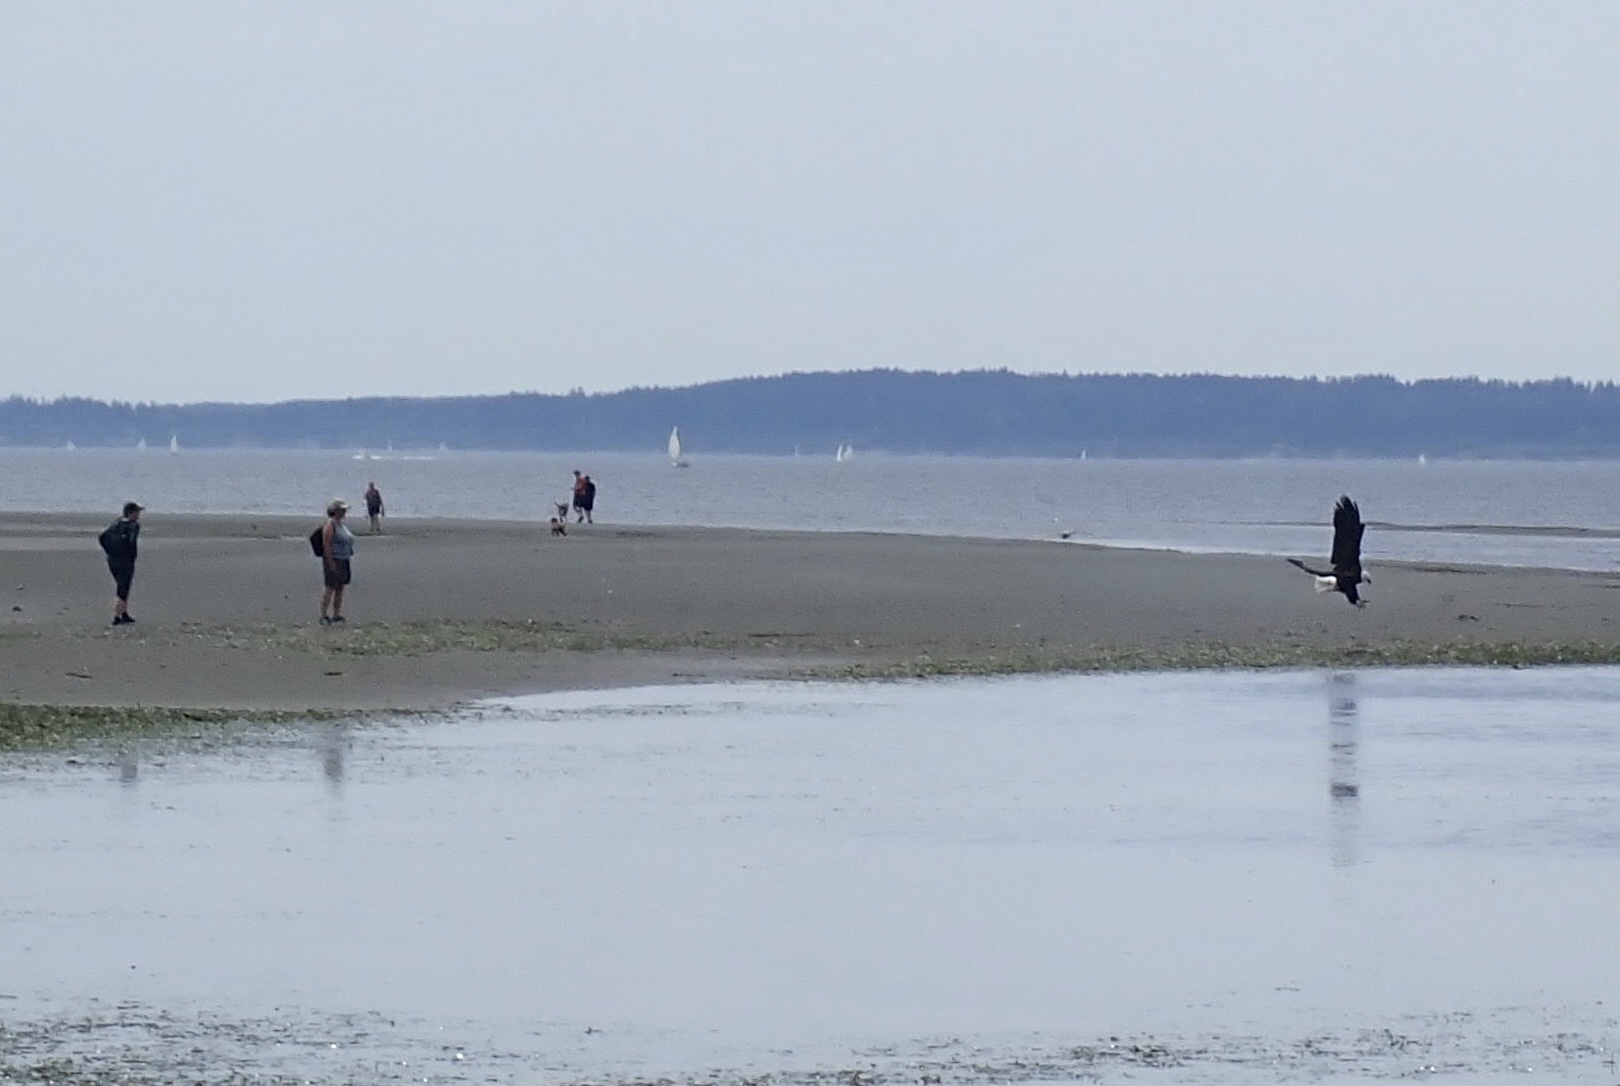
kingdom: Animalia
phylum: Chordata
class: Aves
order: Accipitriformes
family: Accipitridae
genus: Haliaeetus
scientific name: Haliaeetus leucocephalus
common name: Bald eagle
